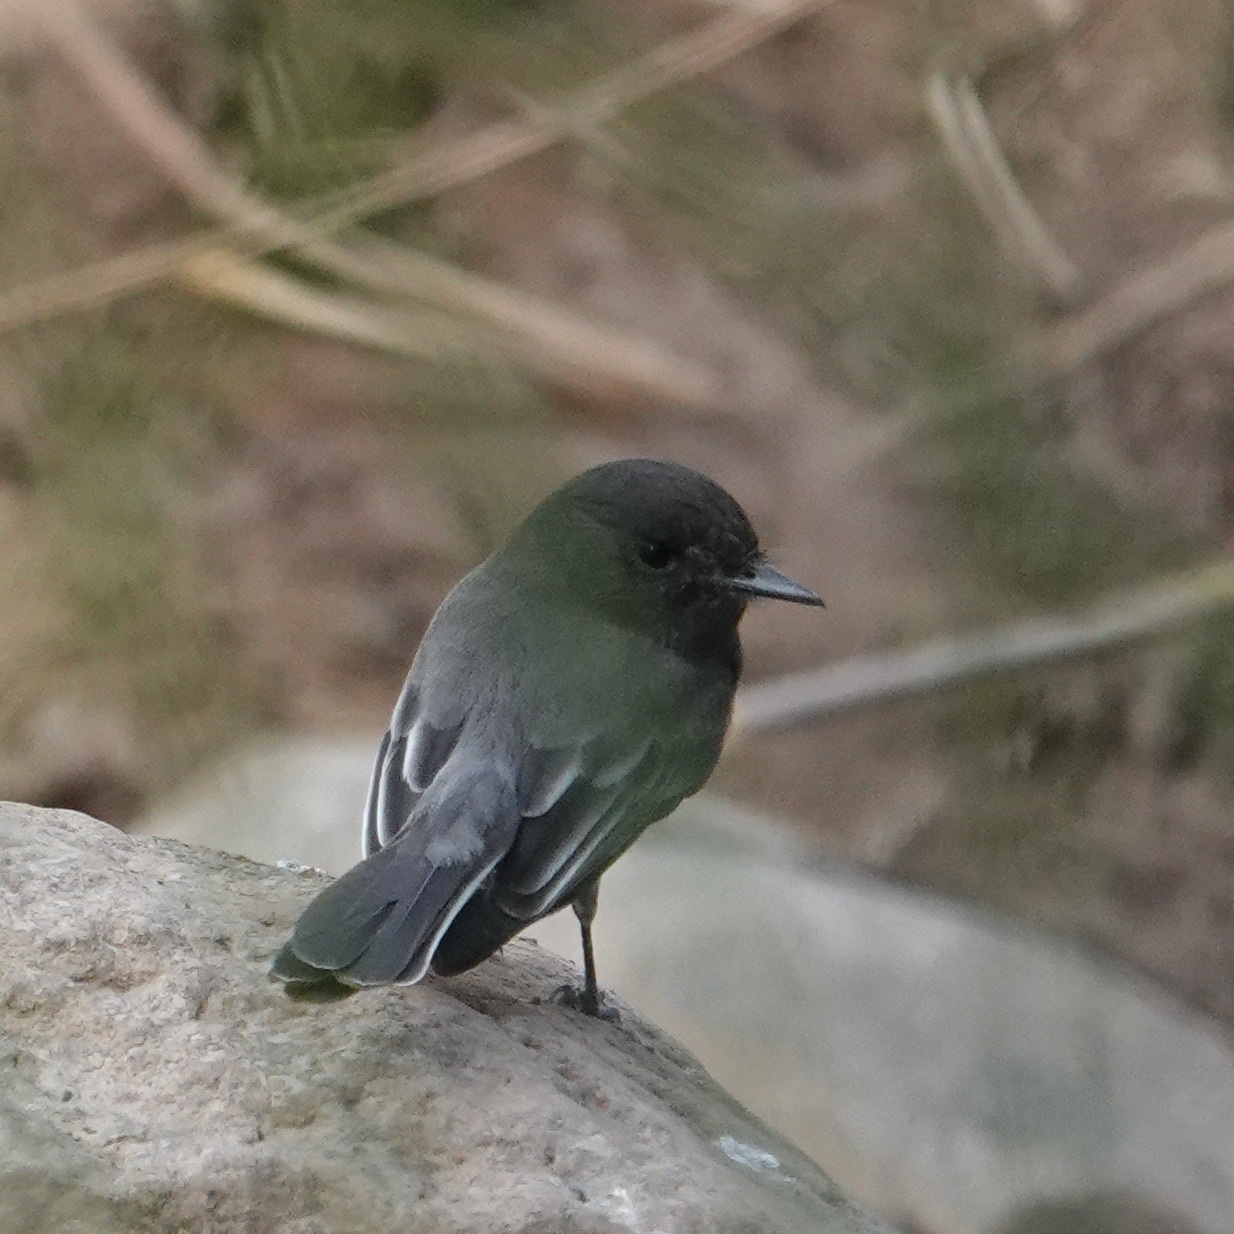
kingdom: Animalia
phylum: Chordata
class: Aves
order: Passeriformes
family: Tyrannidae
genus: Sayornis
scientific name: Sayornis nigricans
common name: Black phoebe
